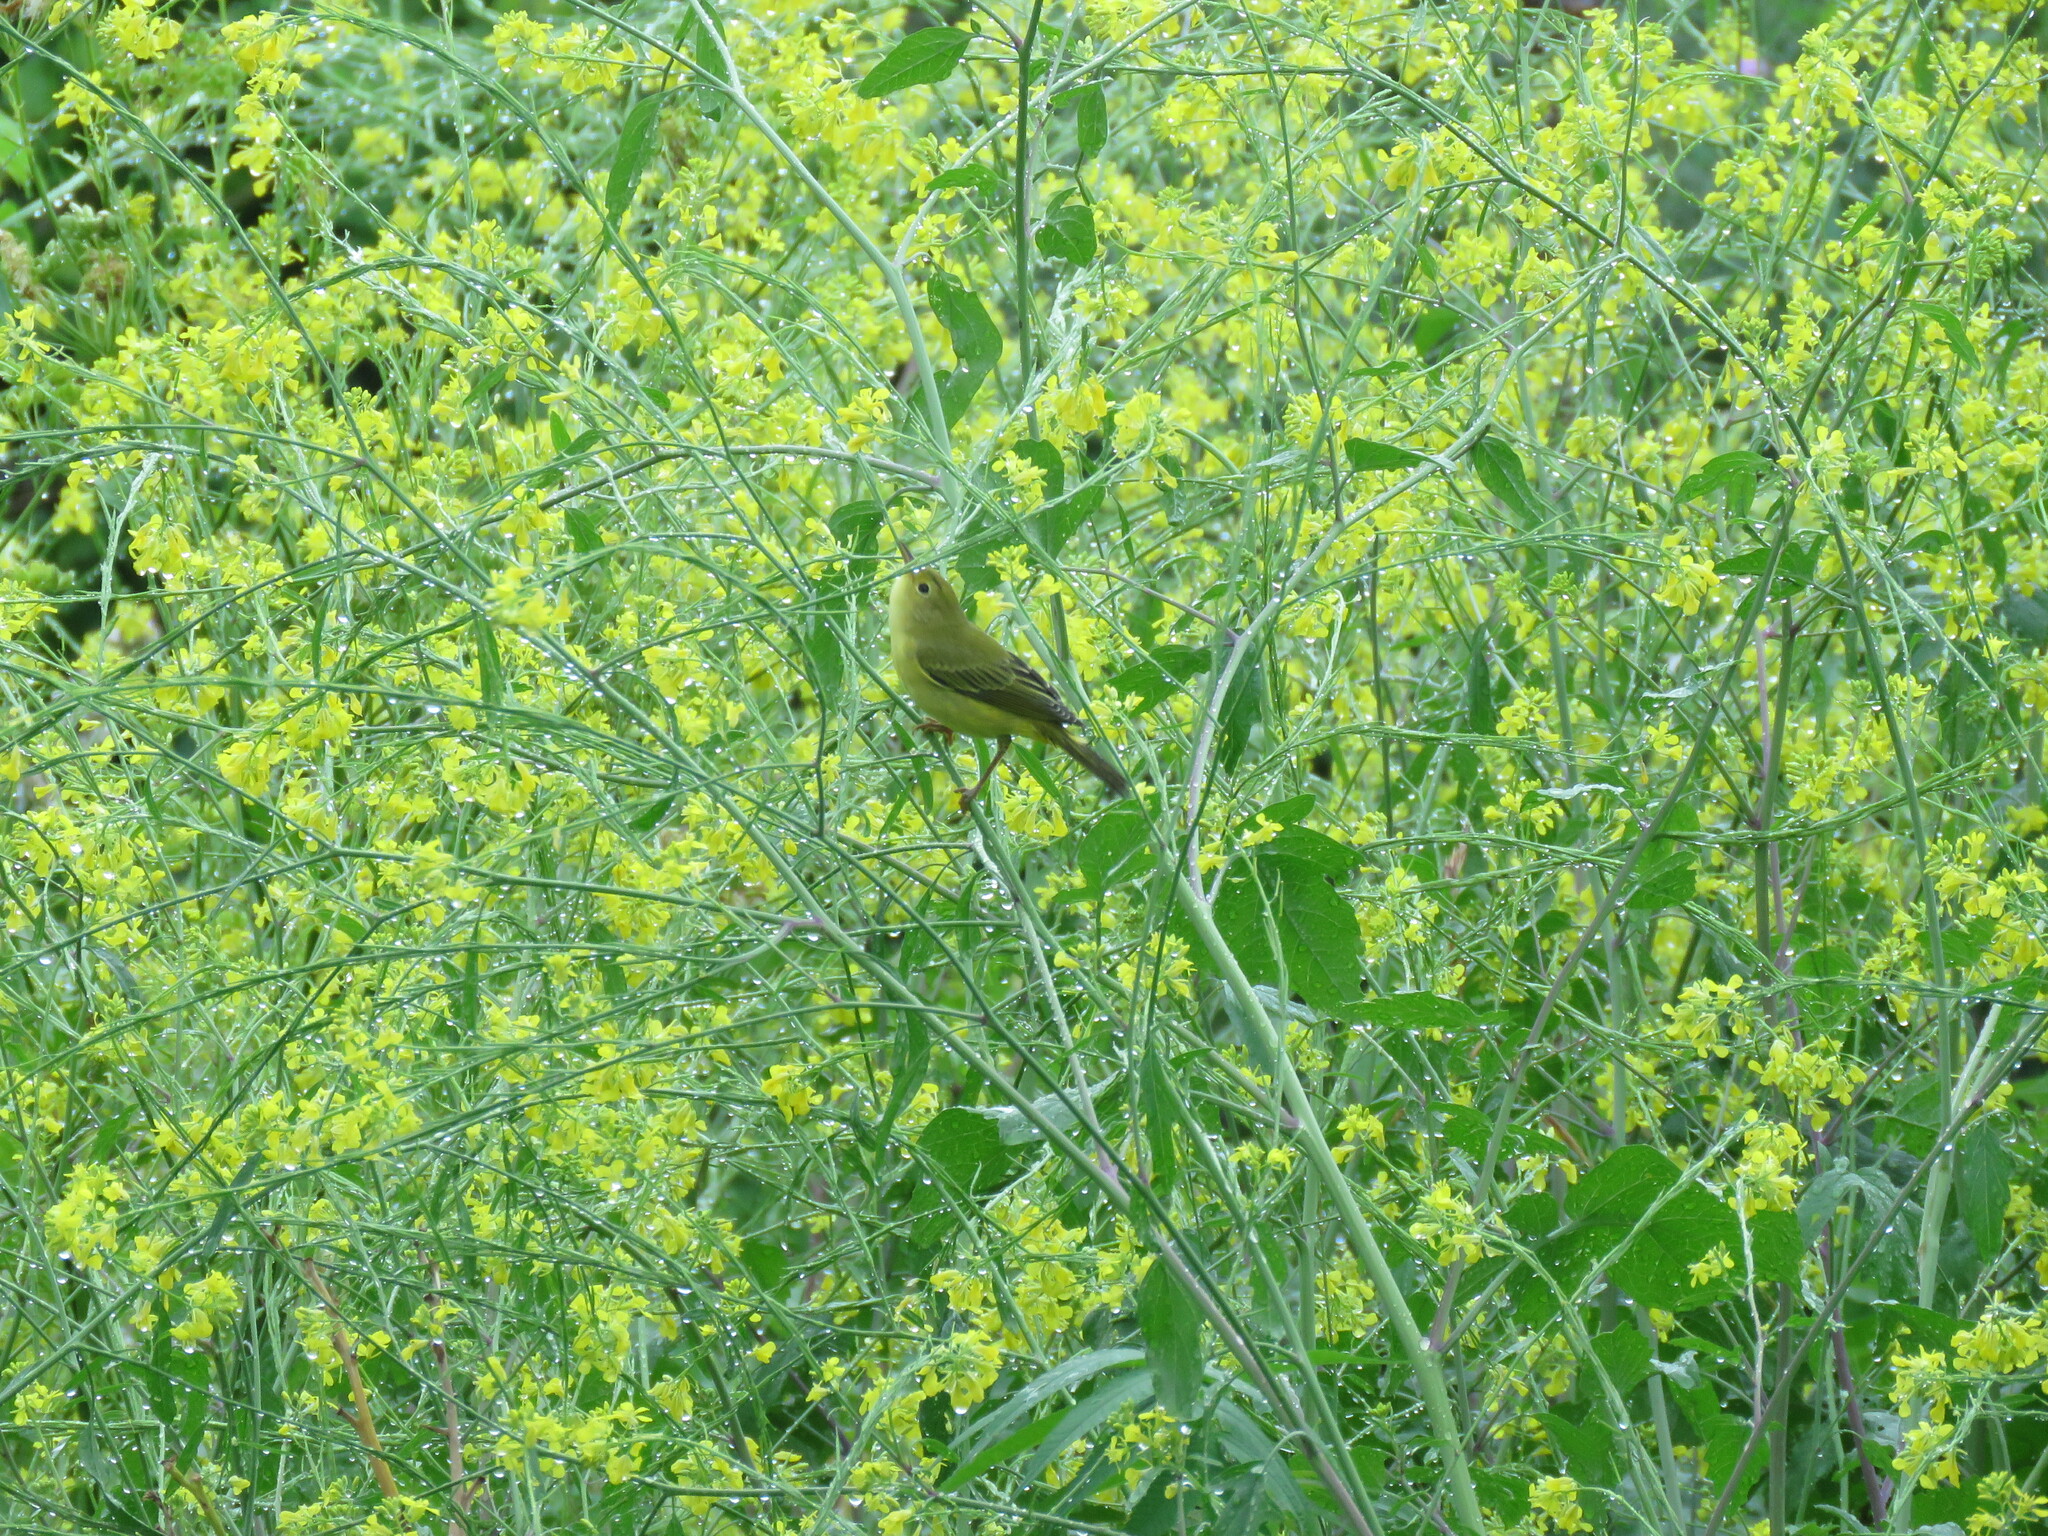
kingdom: Animalia
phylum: Chordata
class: Aves
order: Passeriformes
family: Parulidae
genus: Setophaga
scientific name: Setophaga petechia
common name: Yellow warbler
